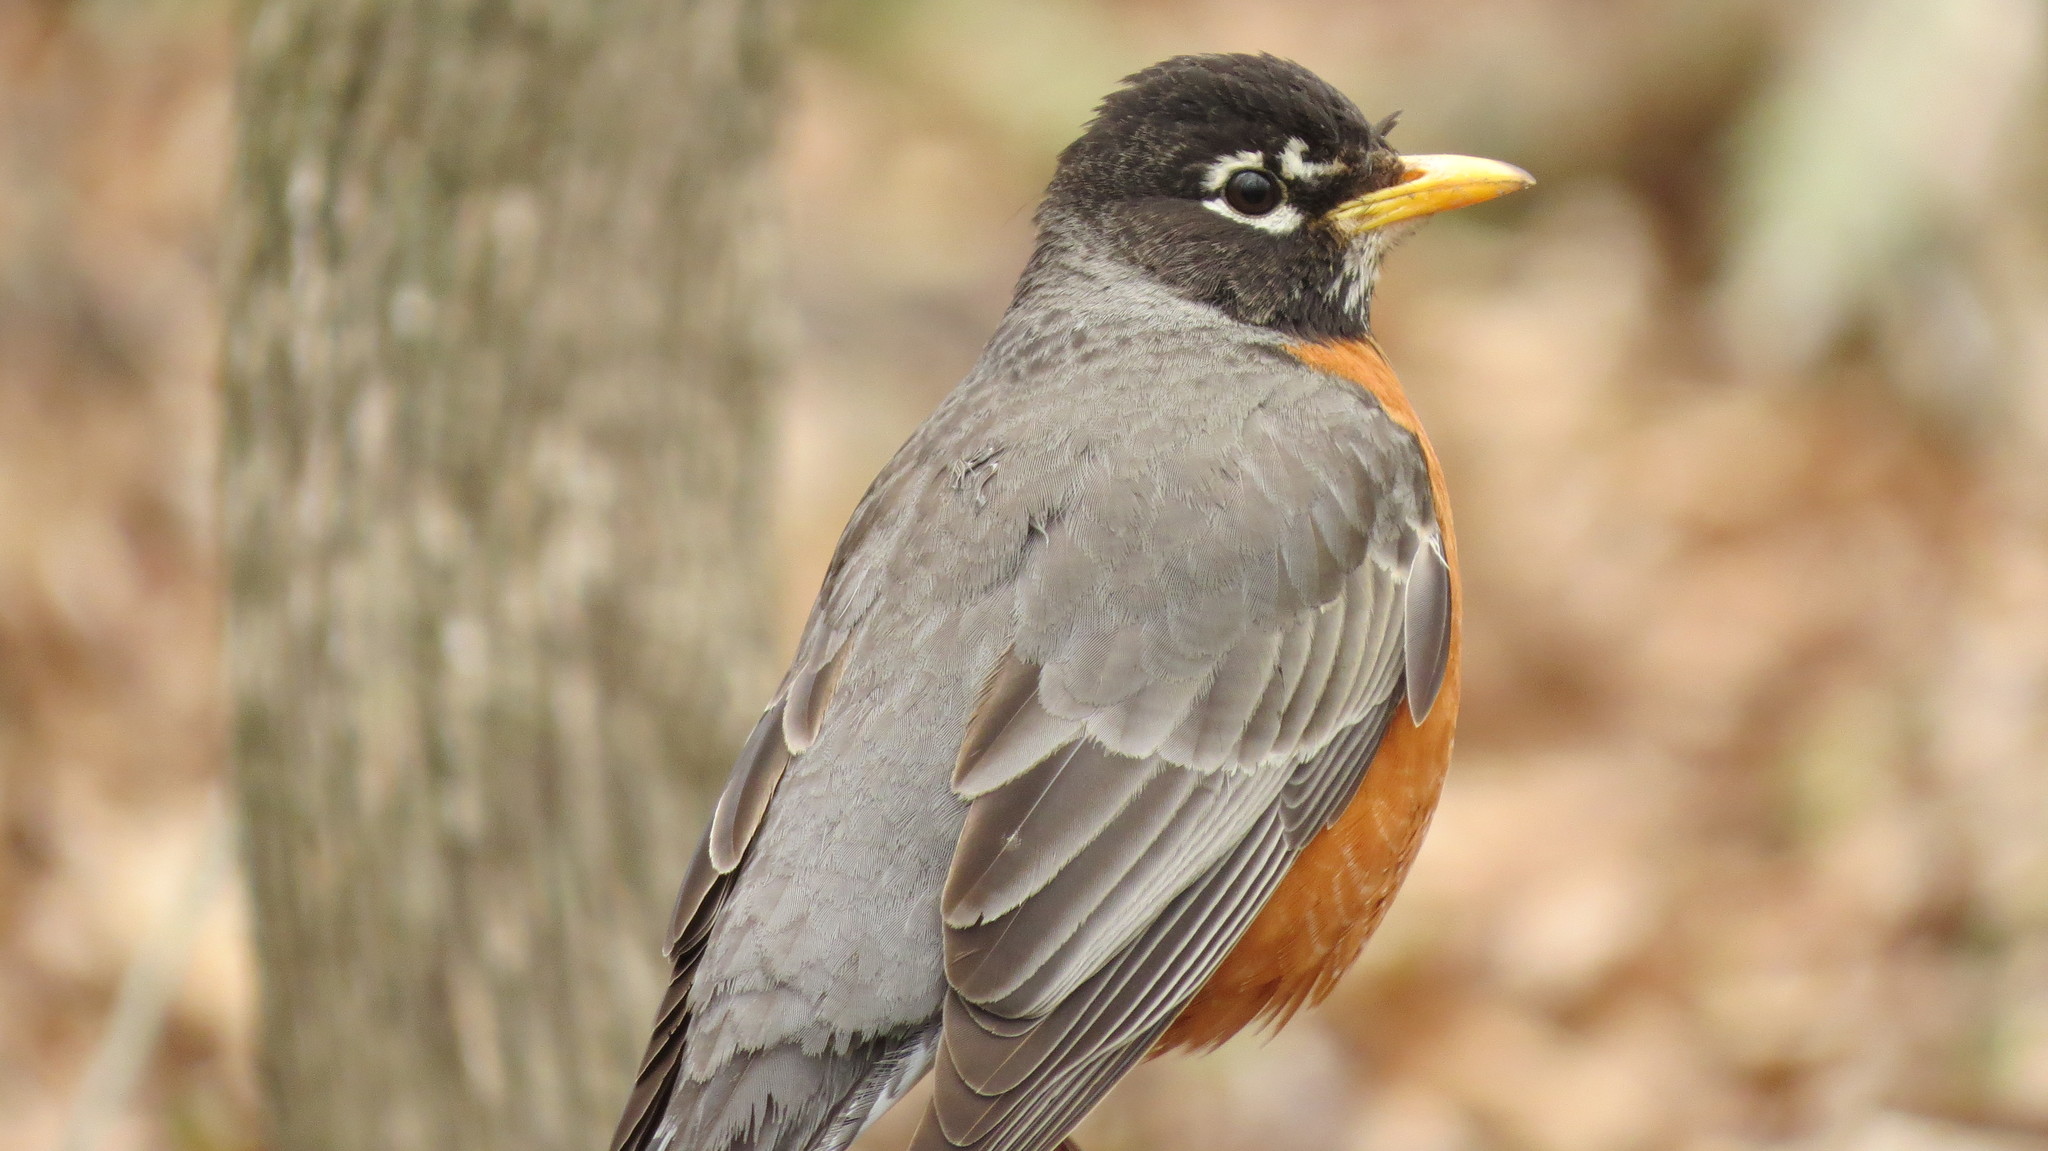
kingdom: Animalia
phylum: Chordata
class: Aves
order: Passeriformes
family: Turdidae
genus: Turdus
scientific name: Turdus migratorius
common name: American robin
